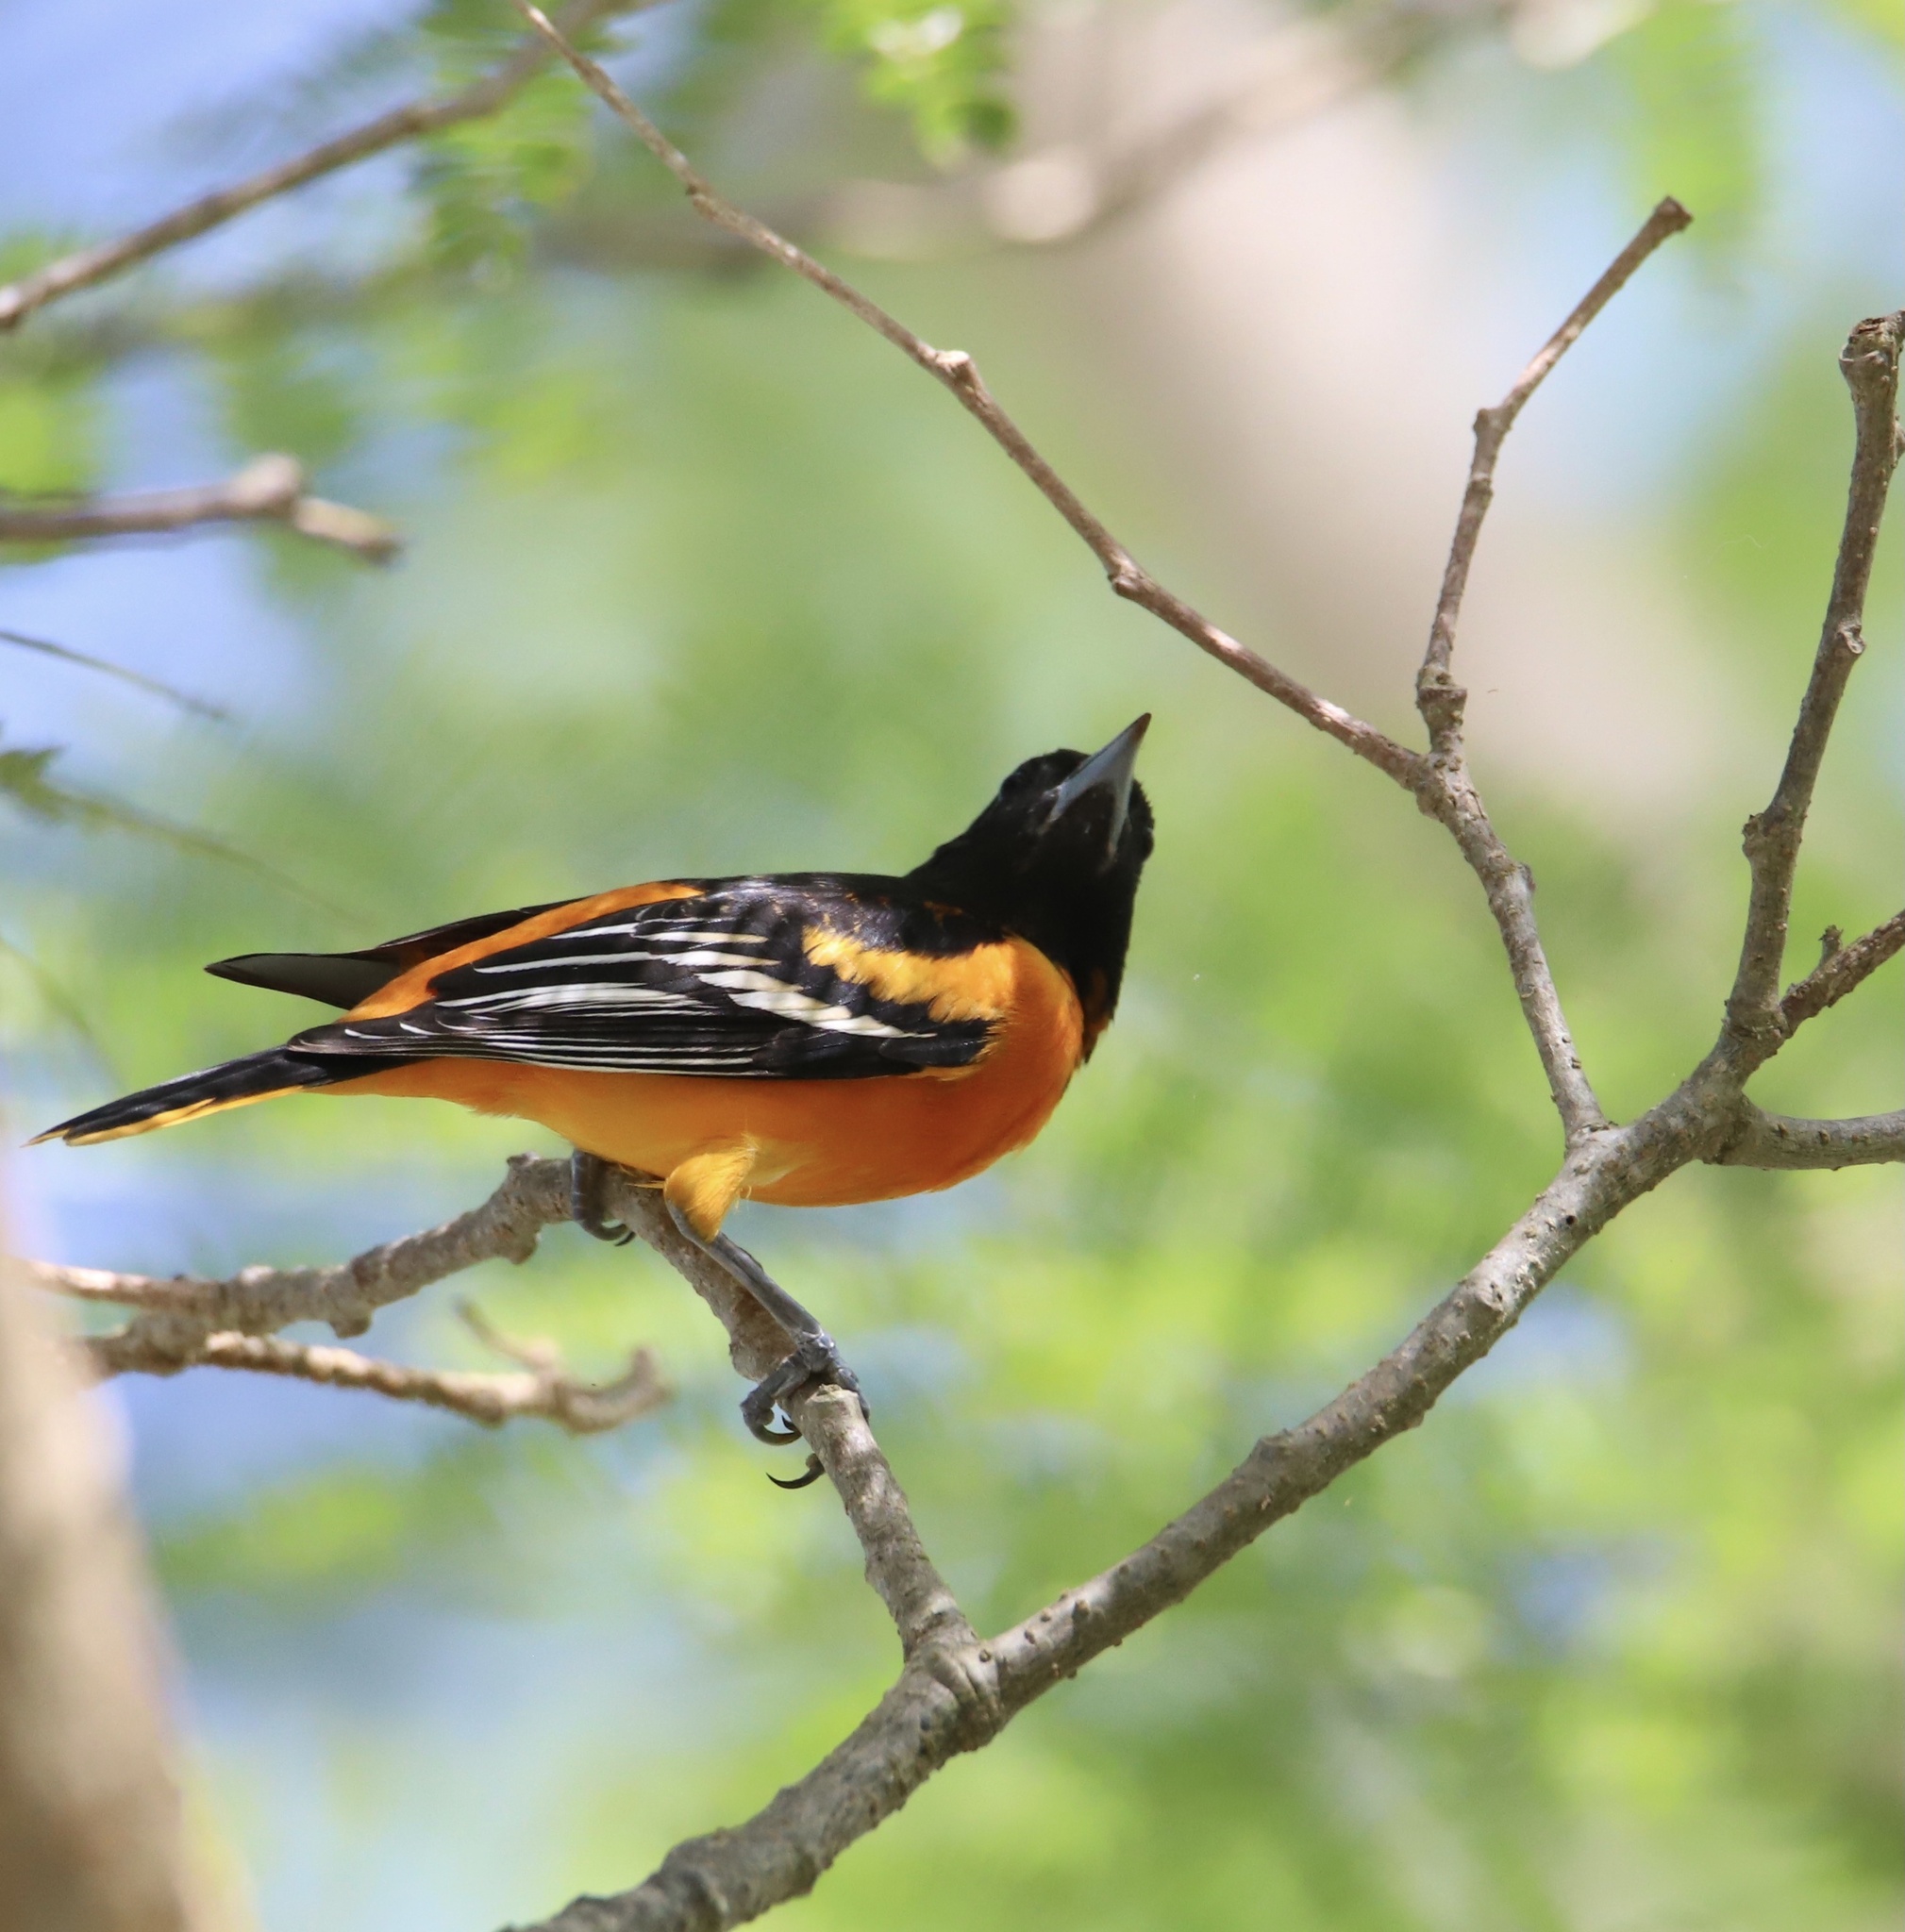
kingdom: Animalia
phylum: Chordata
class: Aves
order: Passeriformes
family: Icteridae
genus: Icterus
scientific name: Icterus galbula
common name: Baltimore oriole
